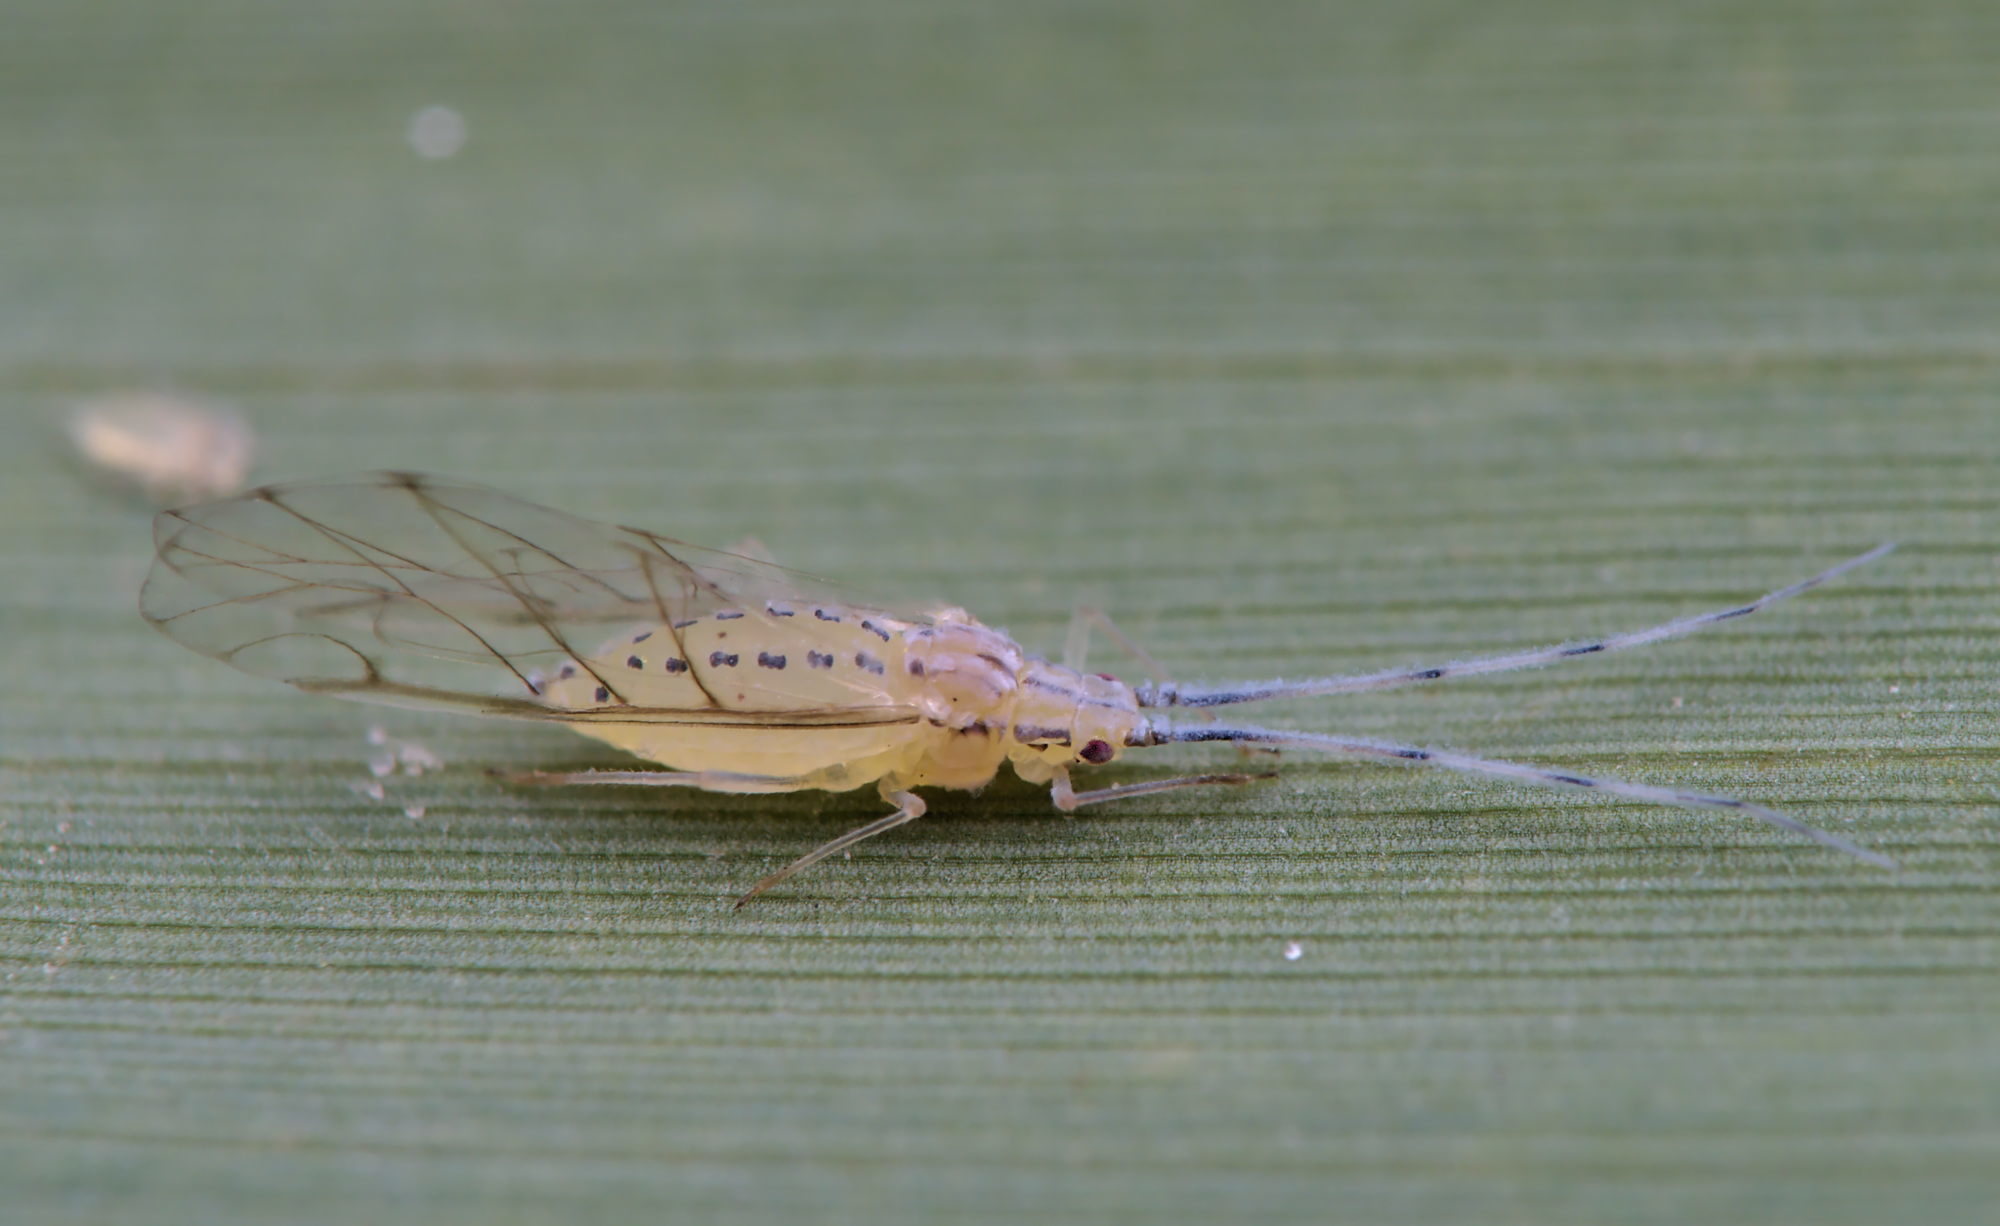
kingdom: Animalia
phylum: Arthropoda
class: Insecta
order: Hemiptera
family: Aphididae
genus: Takecallis
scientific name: Takecallis arundinariae
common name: Black-tailed bamboo aphid
